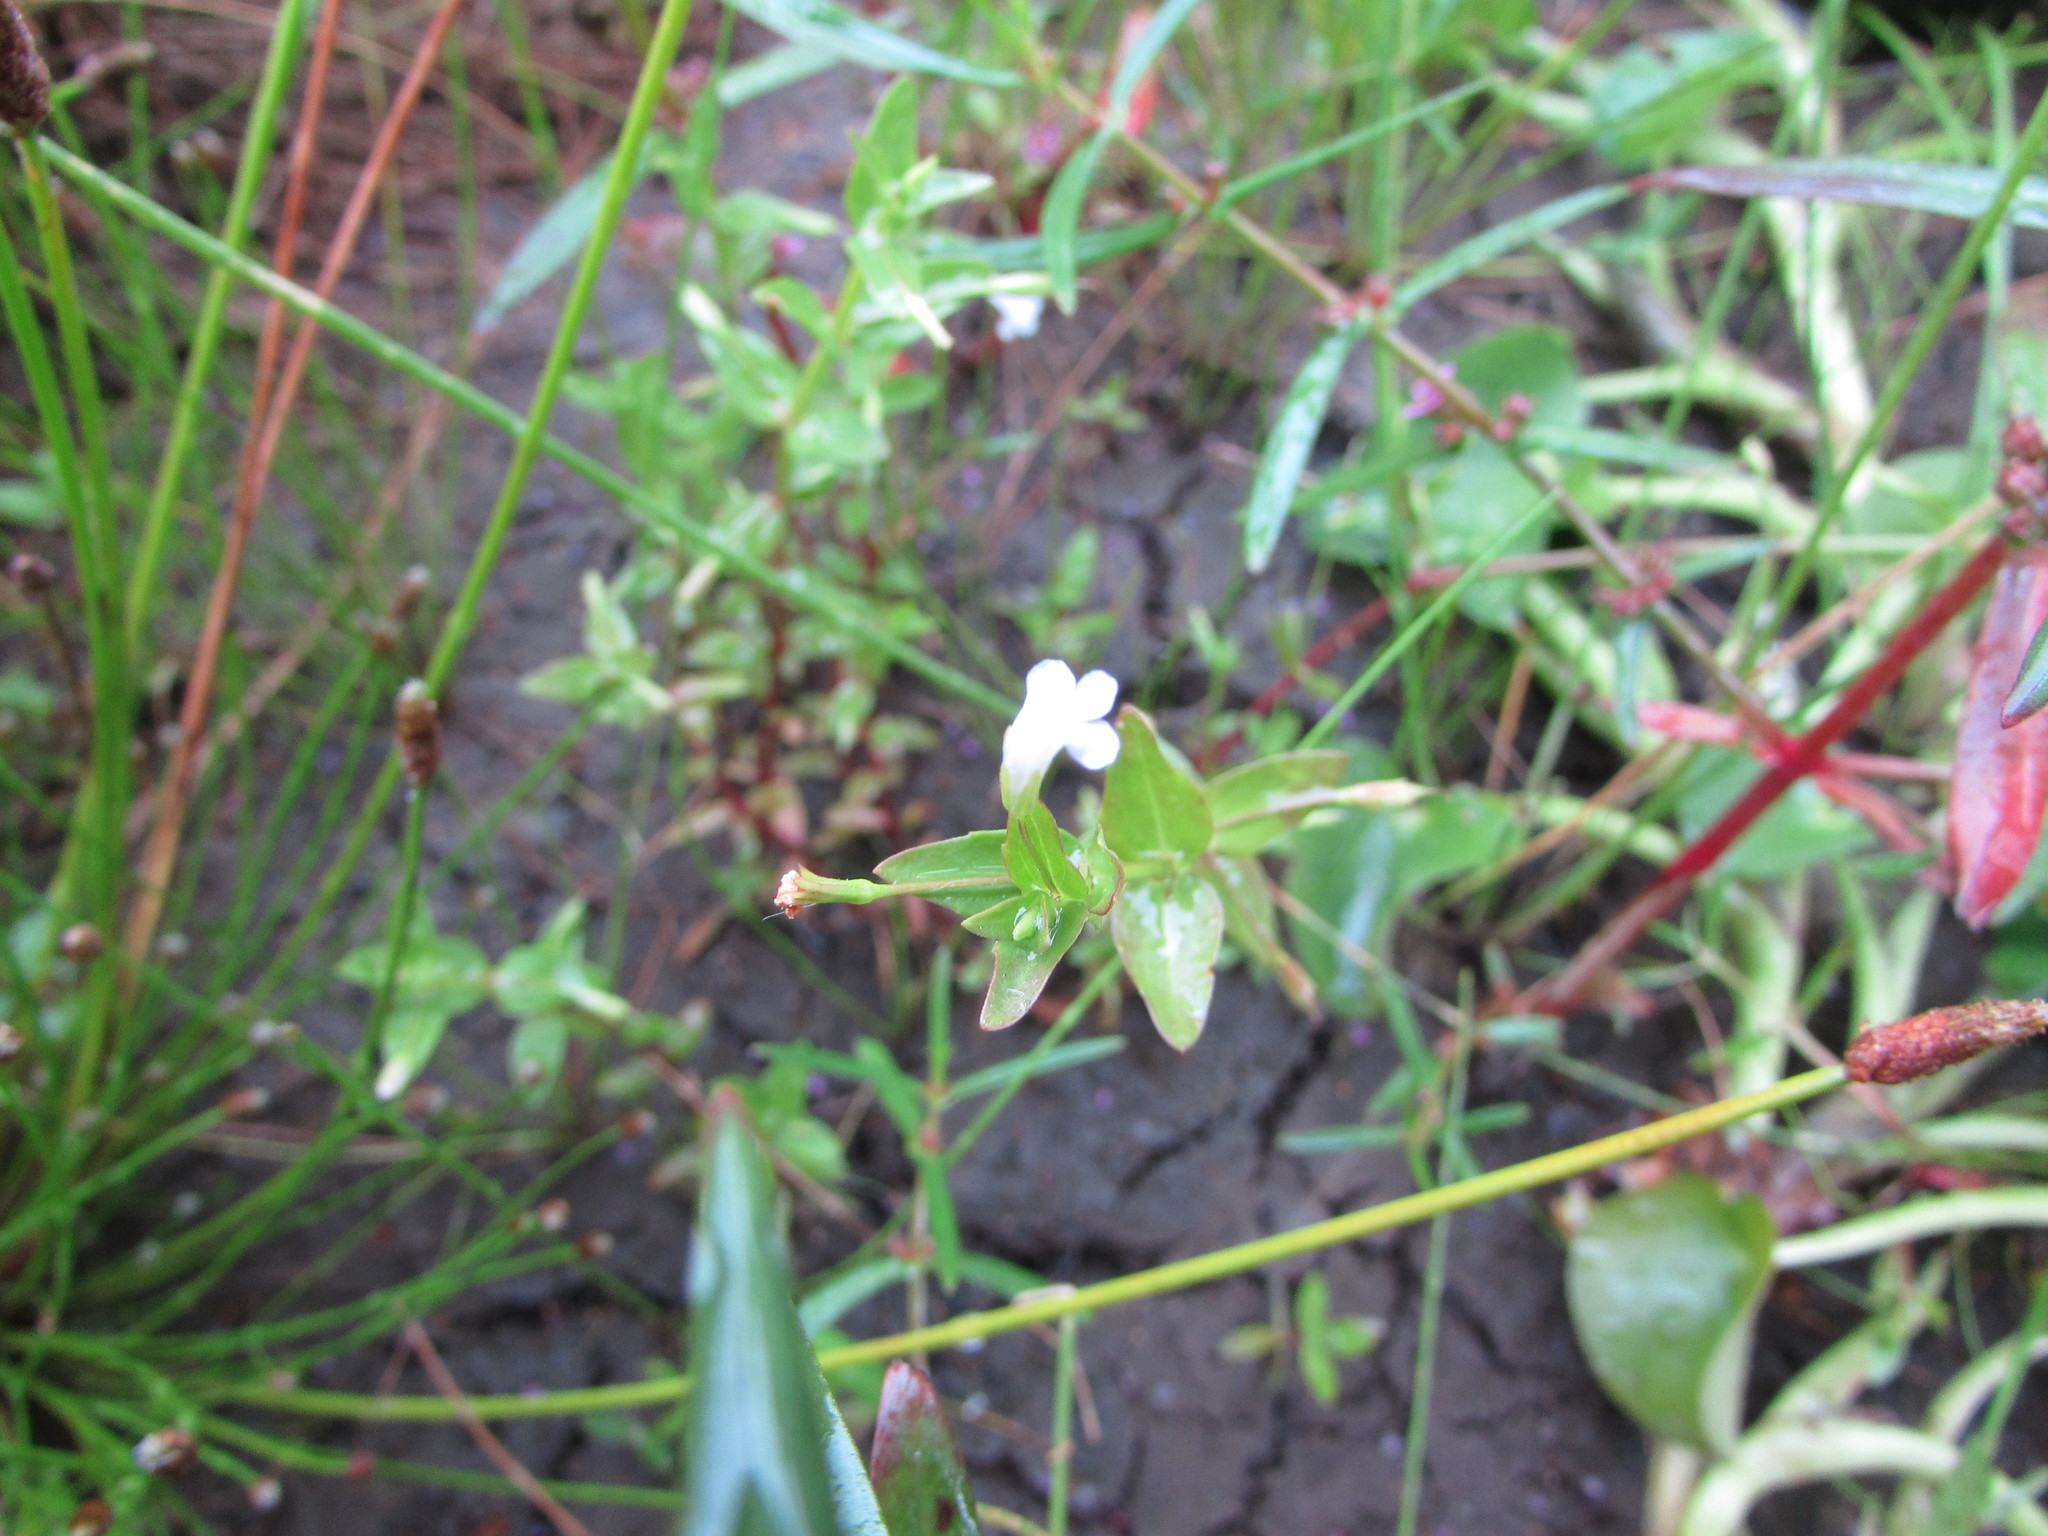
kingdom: Plantae
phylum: Tracheophyta
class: Magnoliopsida
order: Lamiales
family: Linderniaceae
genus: Lindernia
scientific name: Lindernia dubia
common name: Annual false pimpernel
